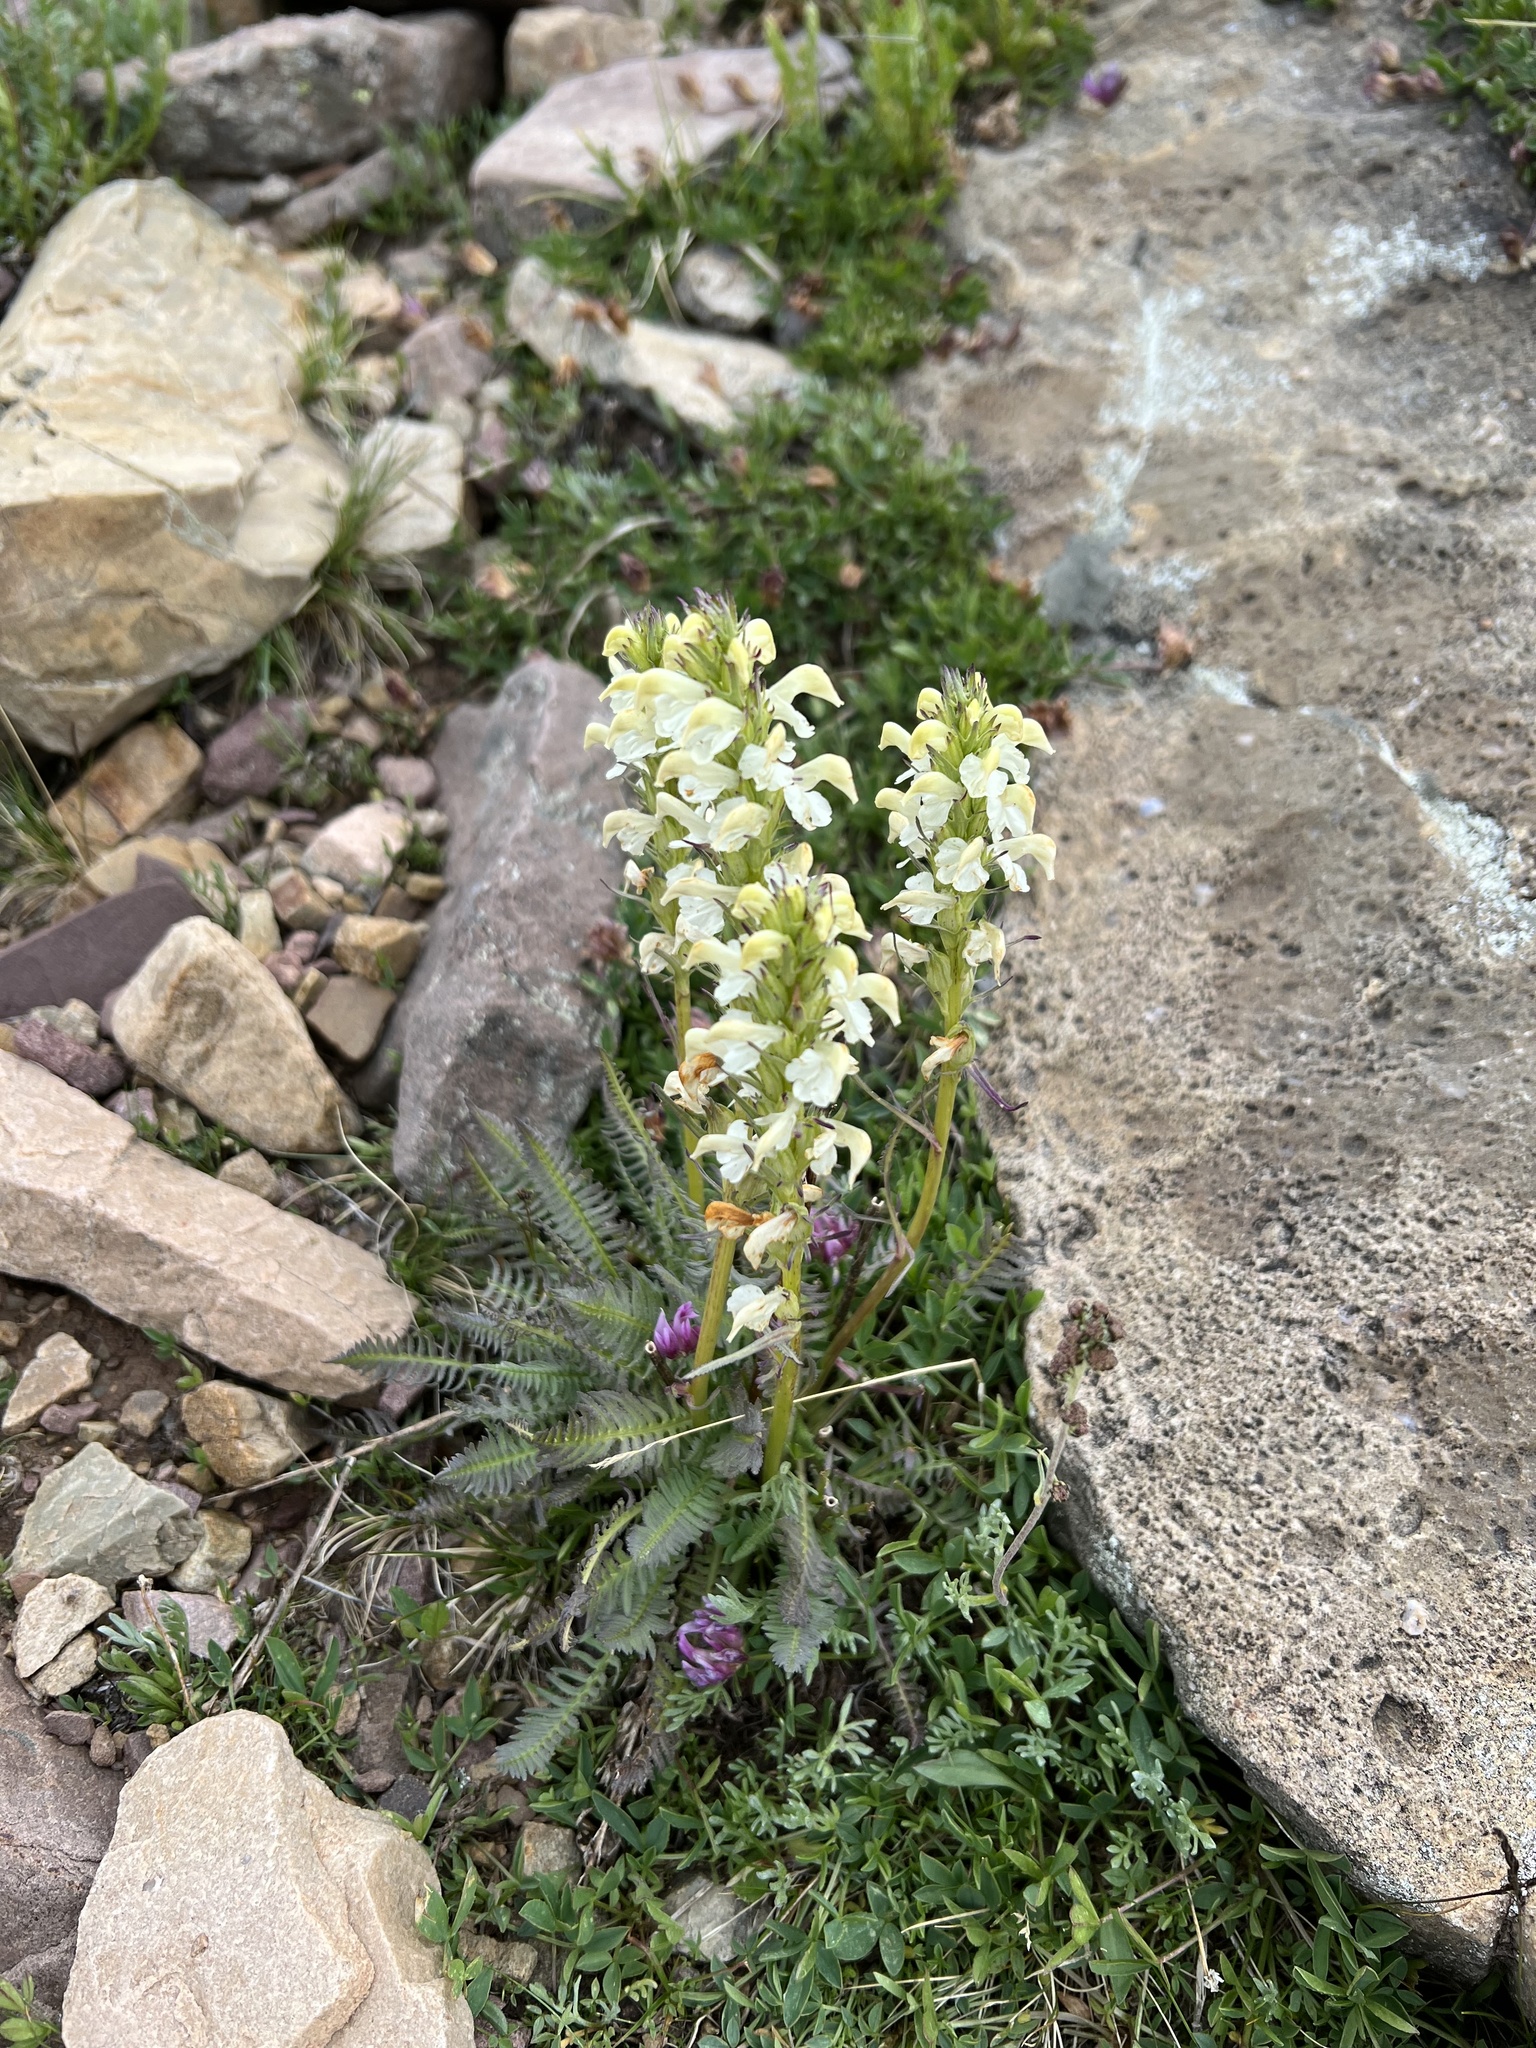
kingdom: Plantae
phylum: Tracheophyta
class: Magnoliopsida
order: Lamiales
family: Orobanchaceae
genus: Pedicularis
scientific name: Pedicularis parryi
